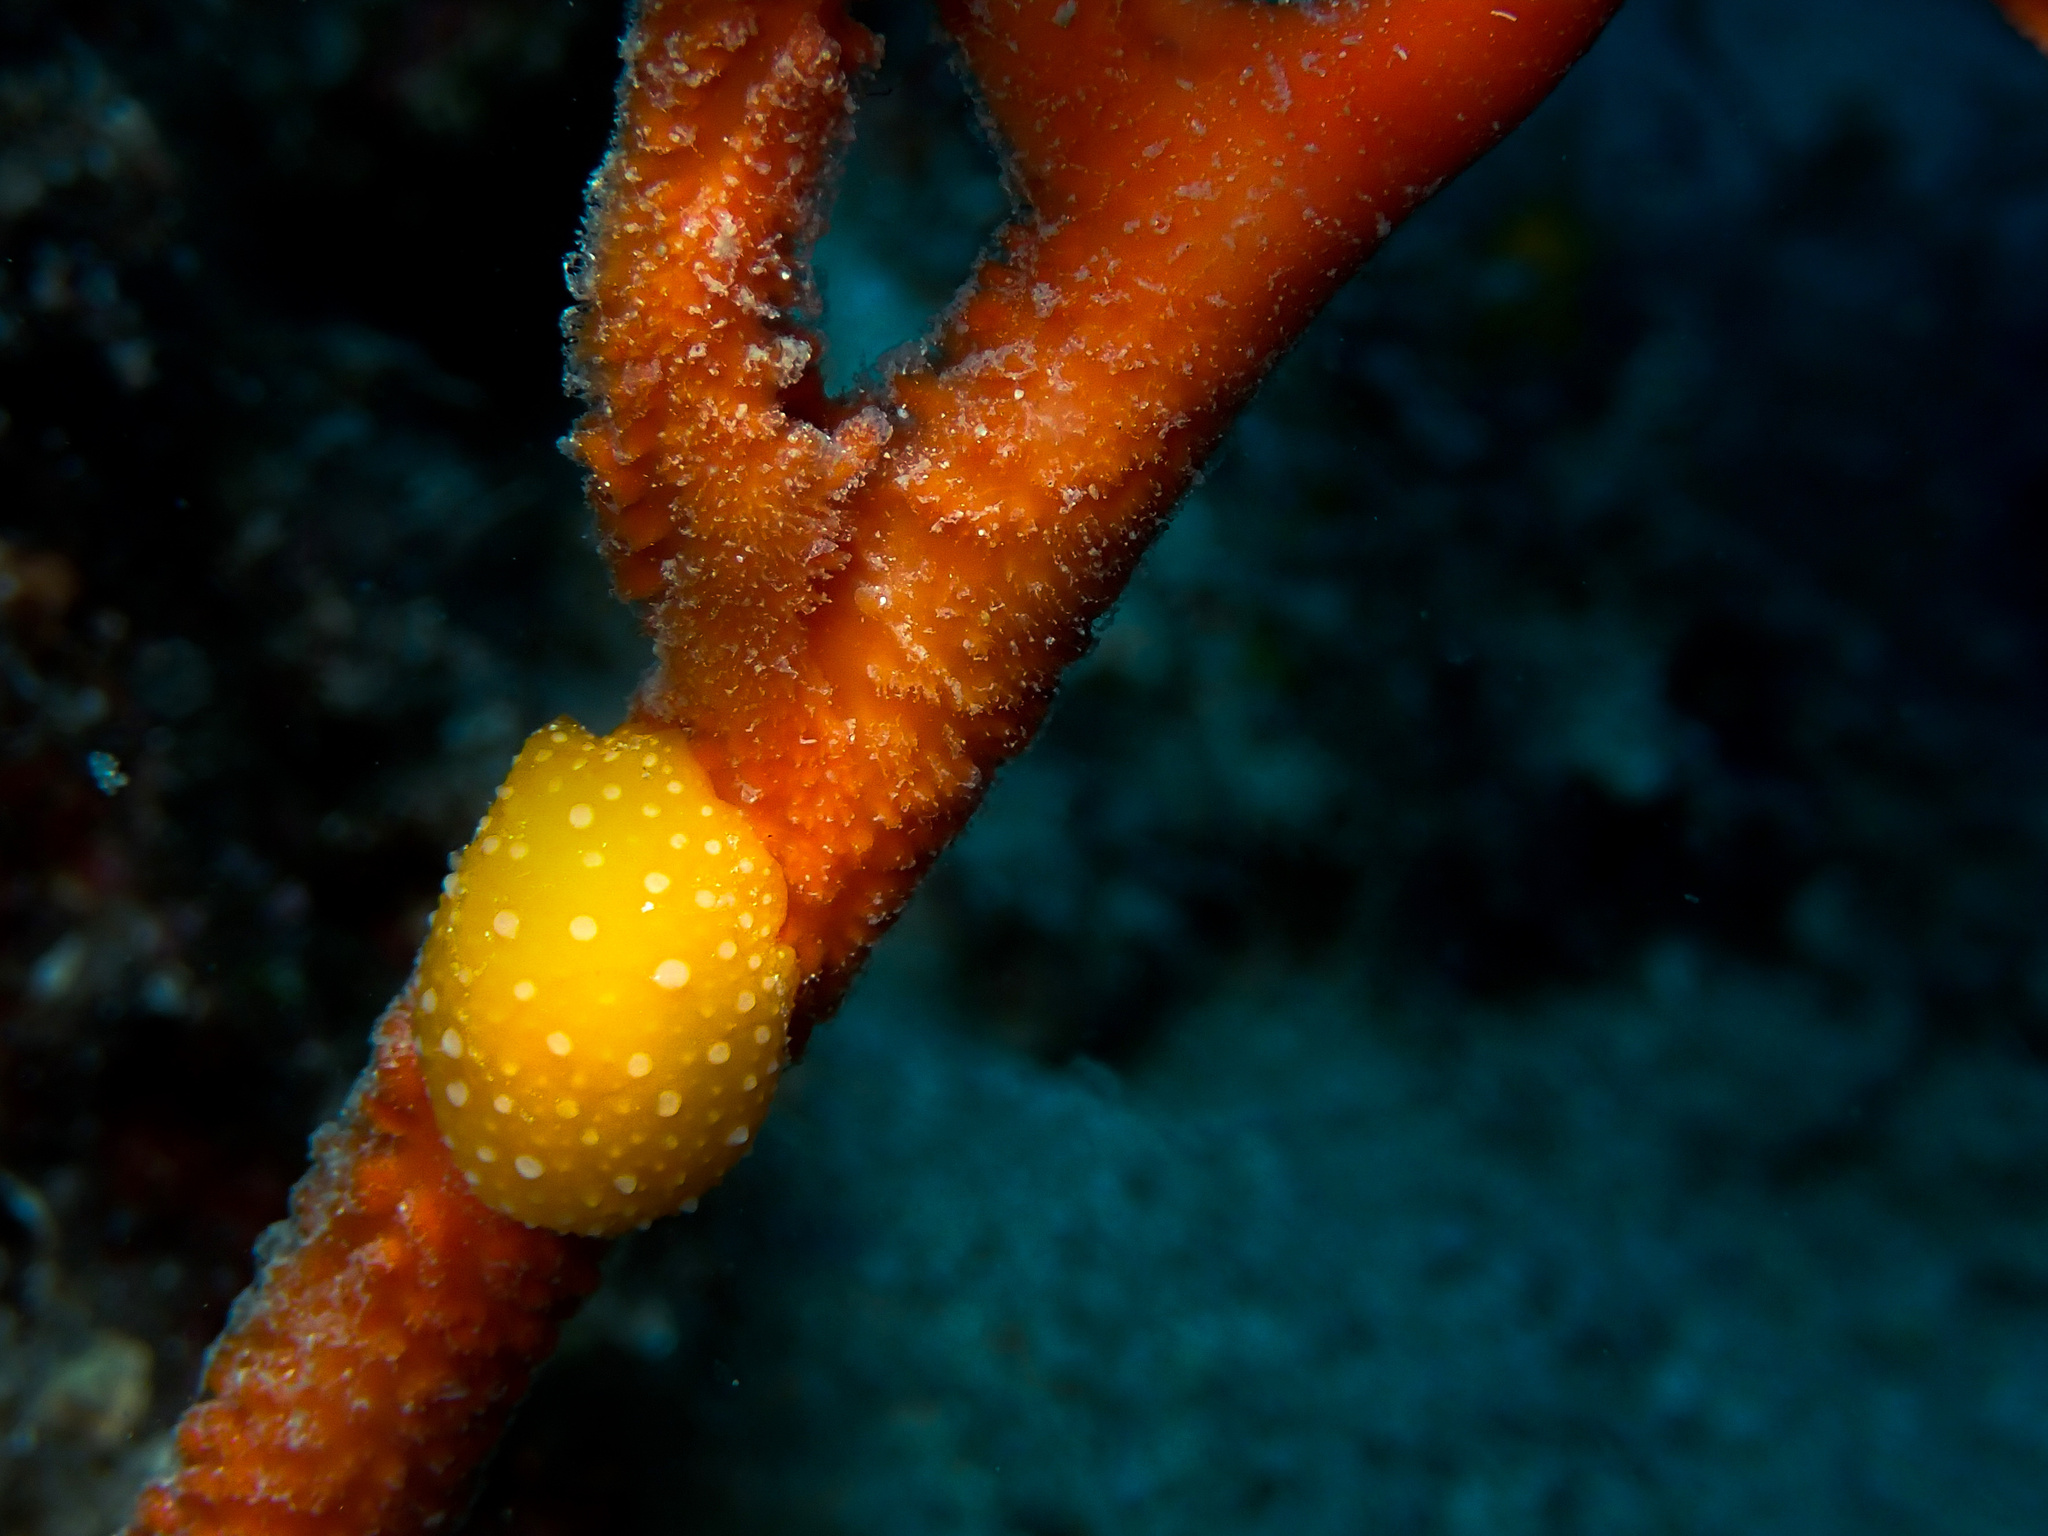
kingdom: Animalia
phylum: Mollusca
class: Gastropoda
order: Nudibranchia
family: Phyllidiidae
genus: Phyllidia
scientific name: Phyllidia flava
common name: White-spotted yellow nudibranch
